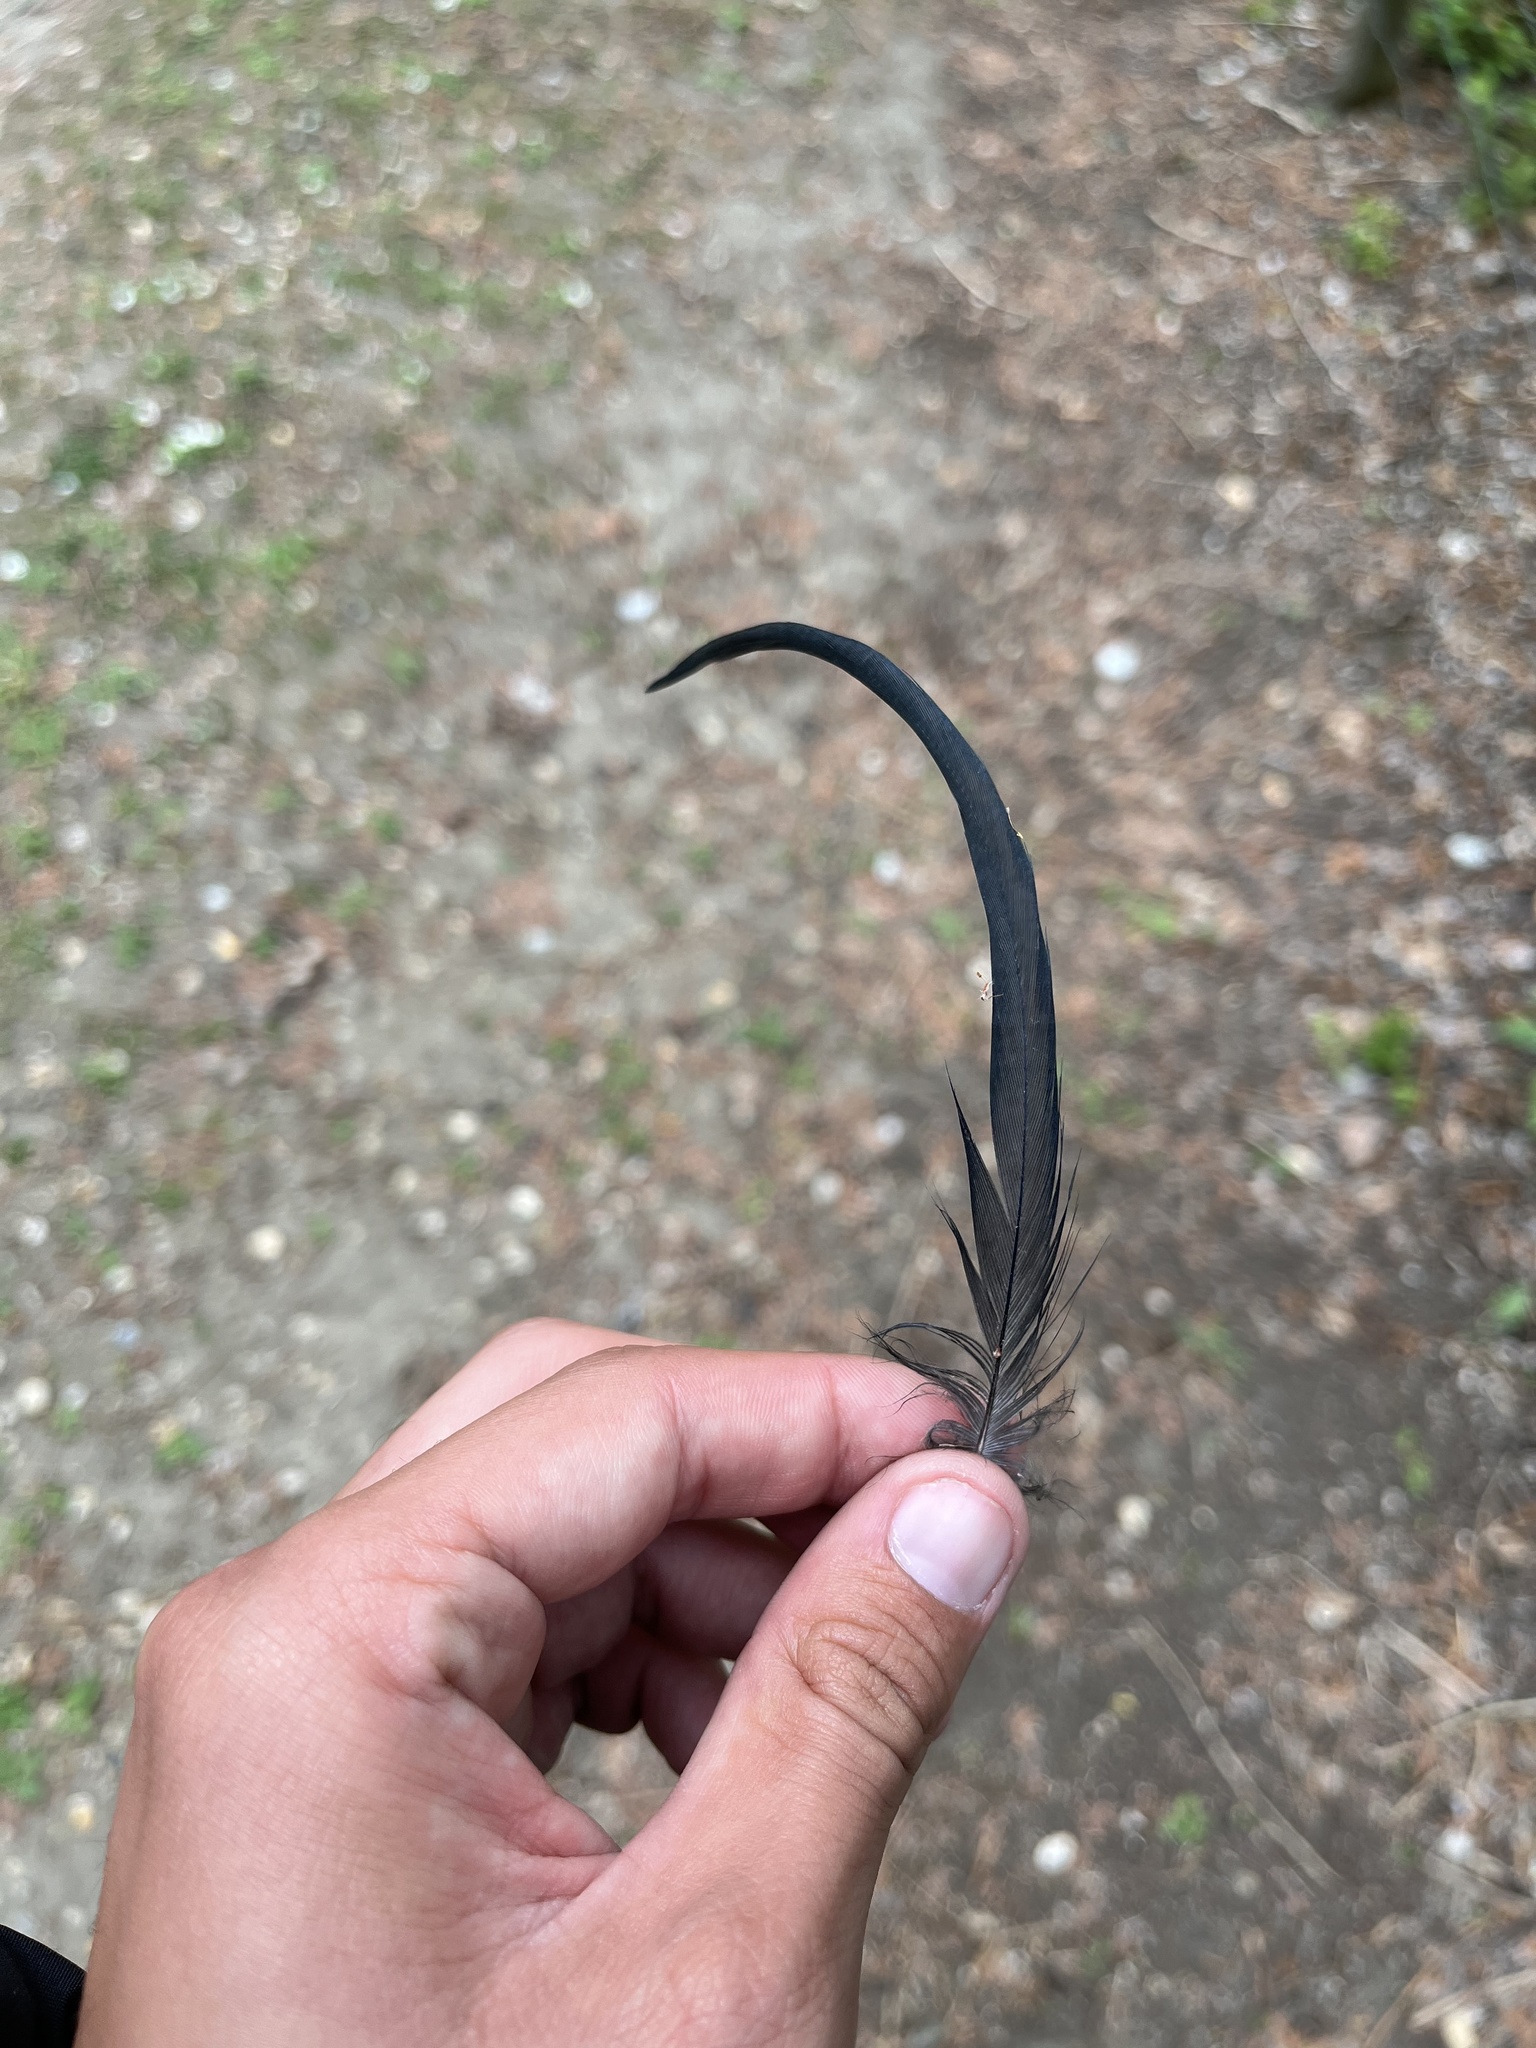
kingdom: Animalia
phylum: Chordata
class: Aves
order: Pelecaniformes
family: Ardeidae
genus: Ardea
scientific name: Ardea cinerea
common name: Grey heron
